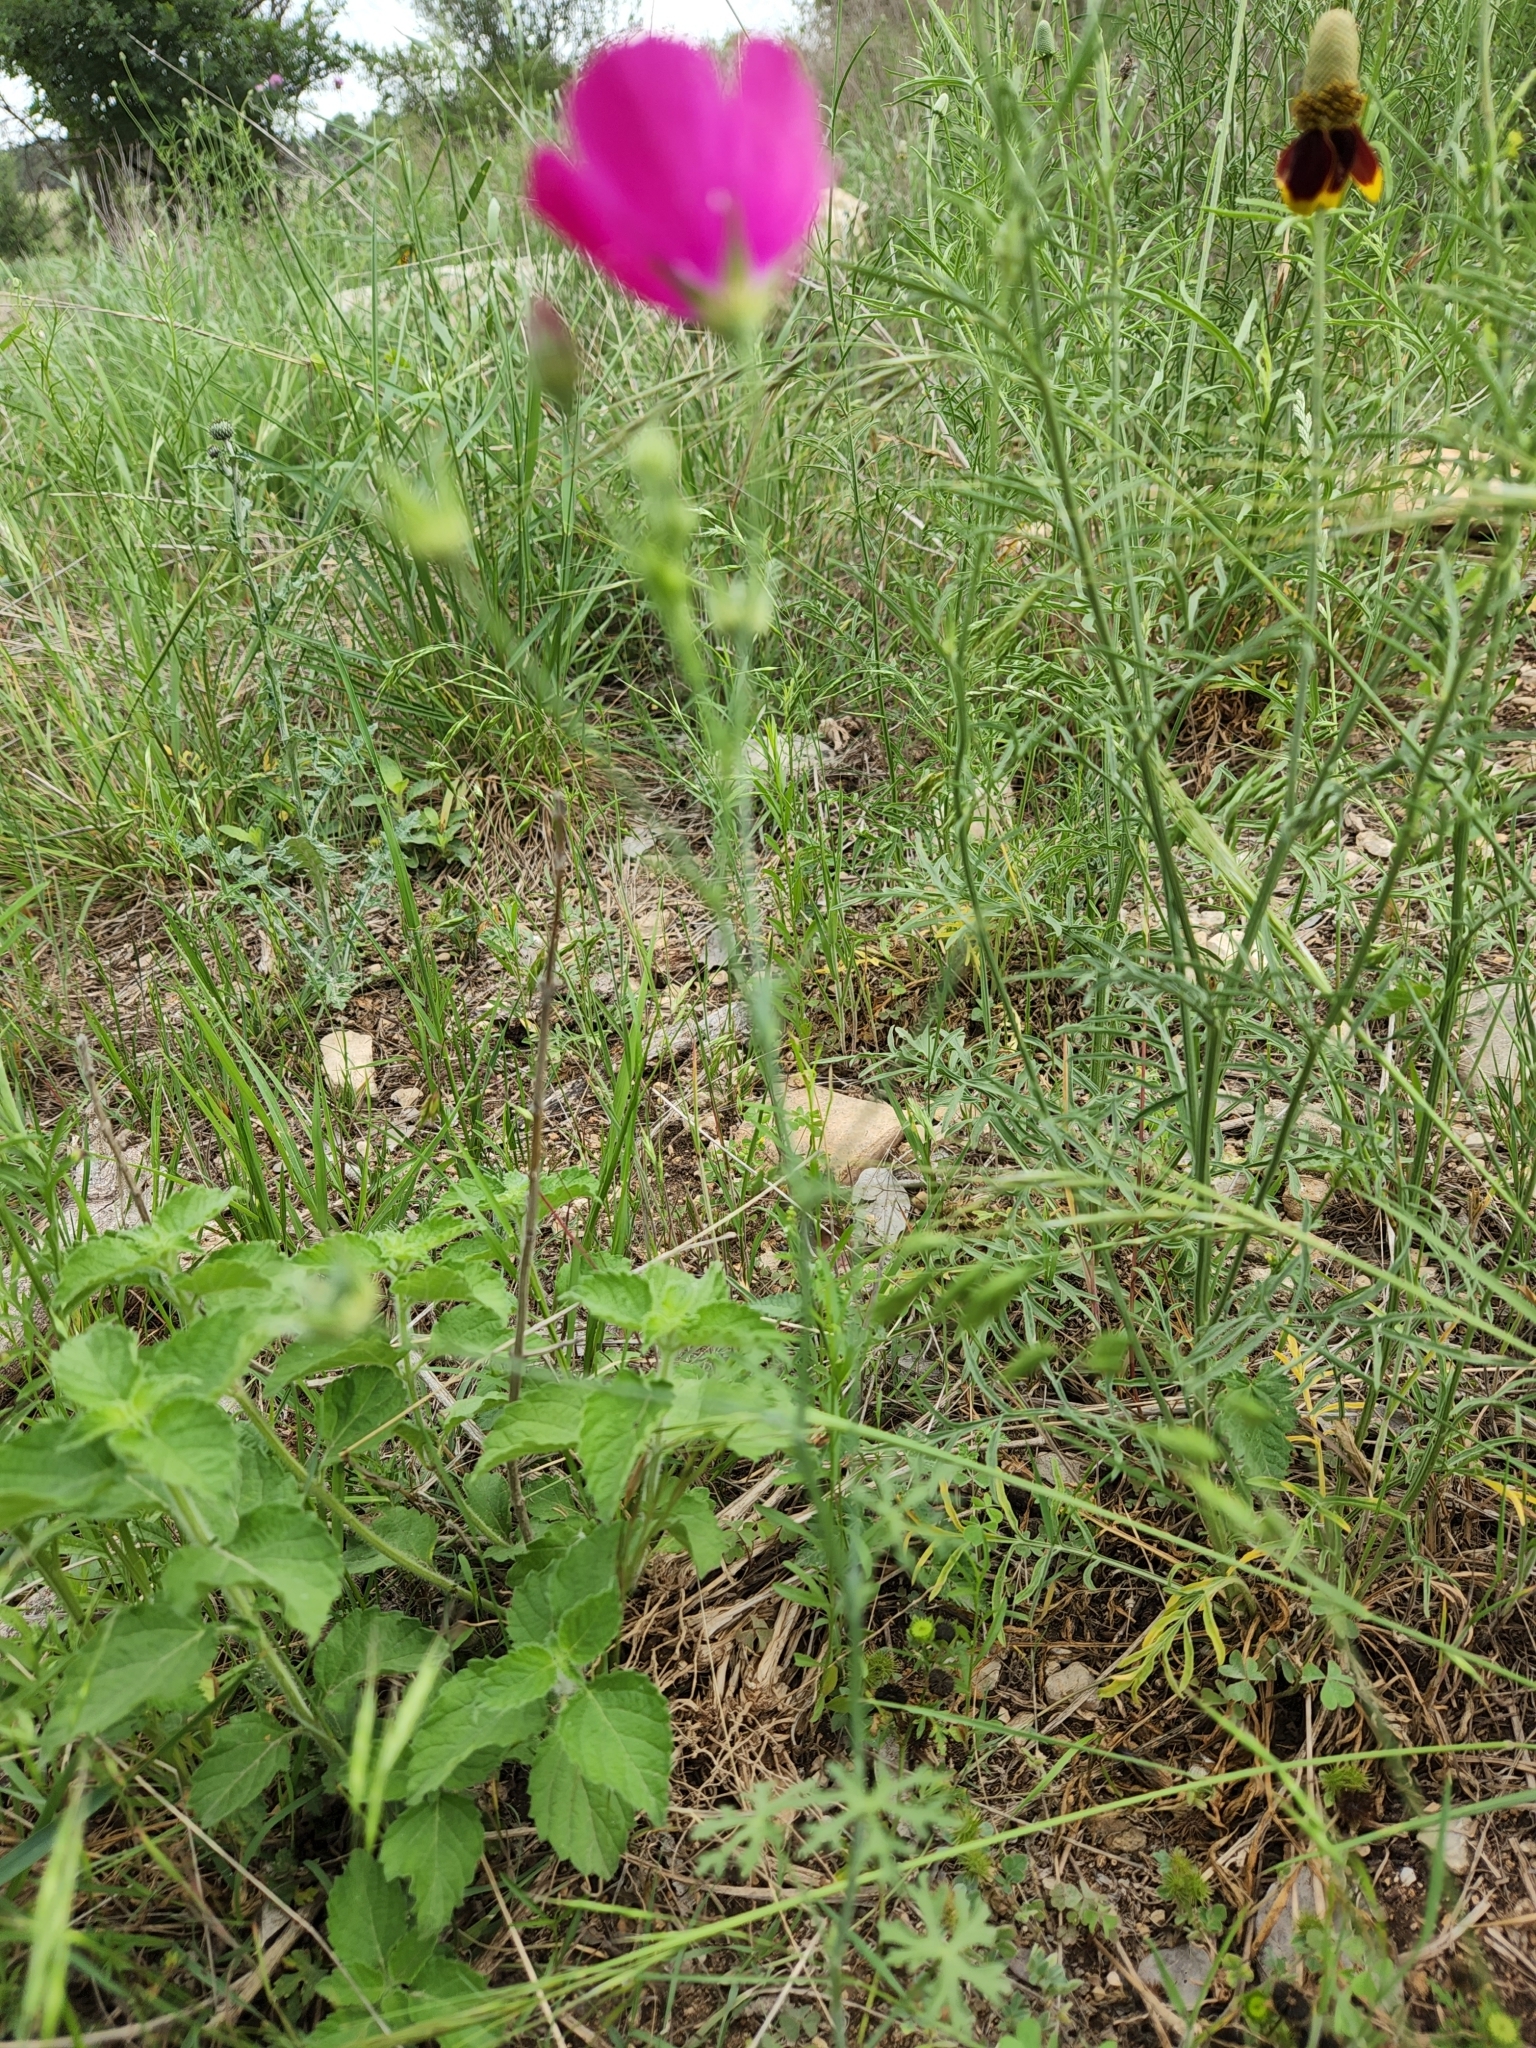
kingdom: Plantae
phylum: Tracheophyta
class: Magnoliopsida
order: Malvales
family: Malvaceae
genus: Callirhoe
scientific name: Callirhoe leiocarpa
